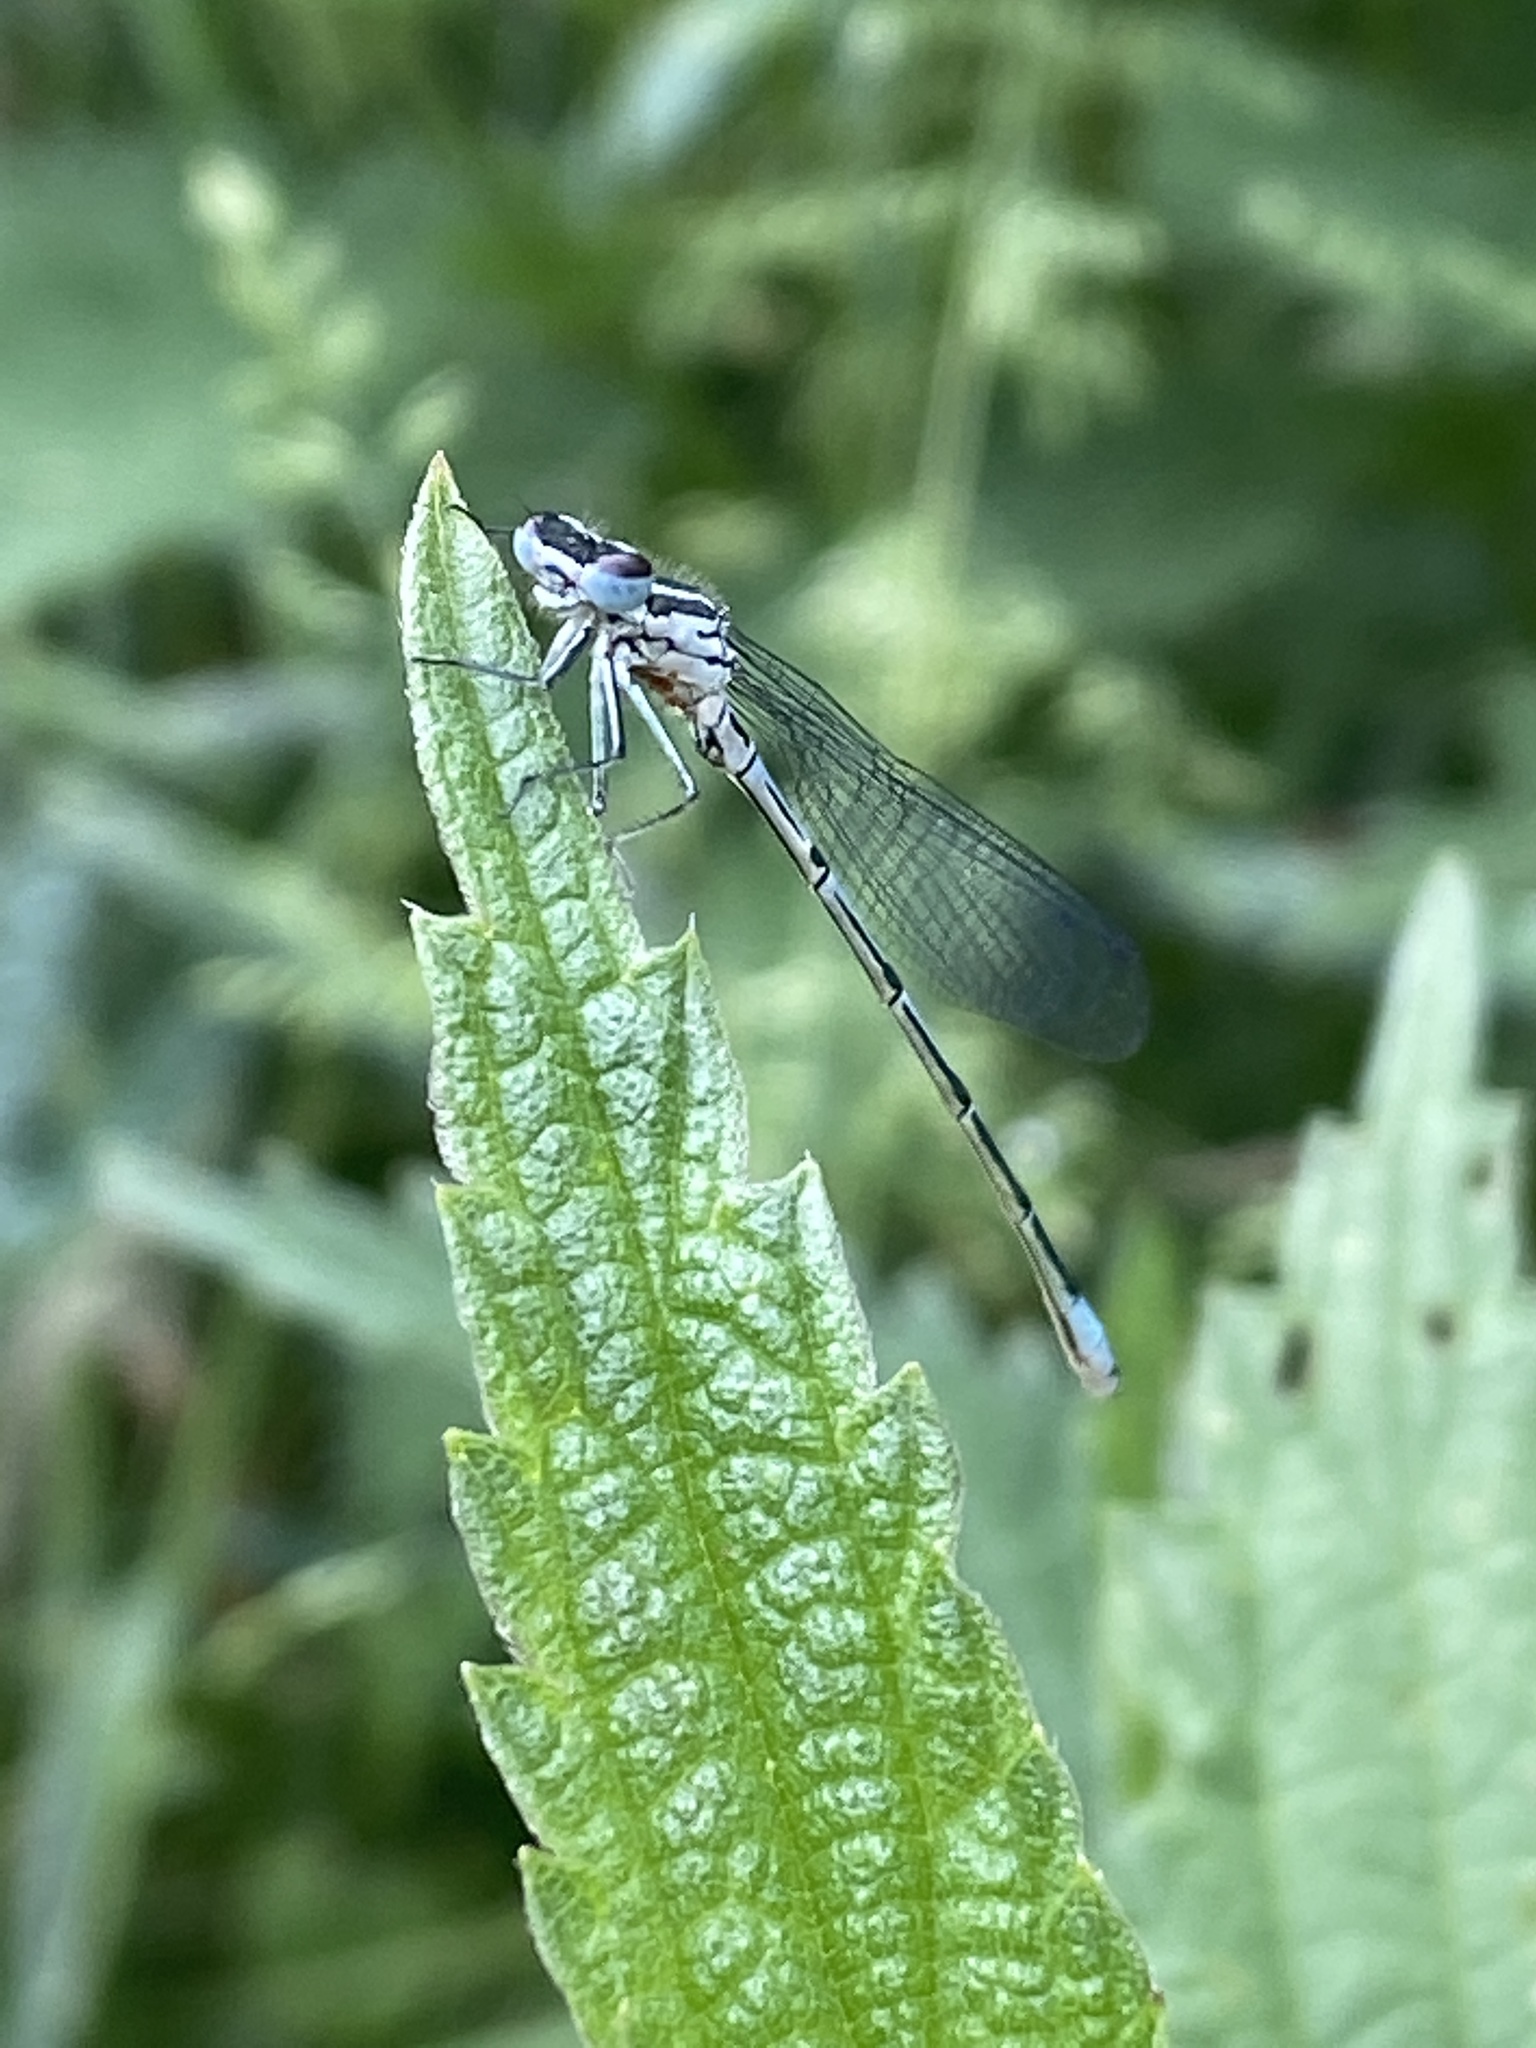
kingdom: Animalia
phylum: Arthropoda
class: Insecta
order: Odonata
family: Coenagrionidae
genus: Coenagrion
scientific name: Coenagrion puella
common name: Azure damselfly
